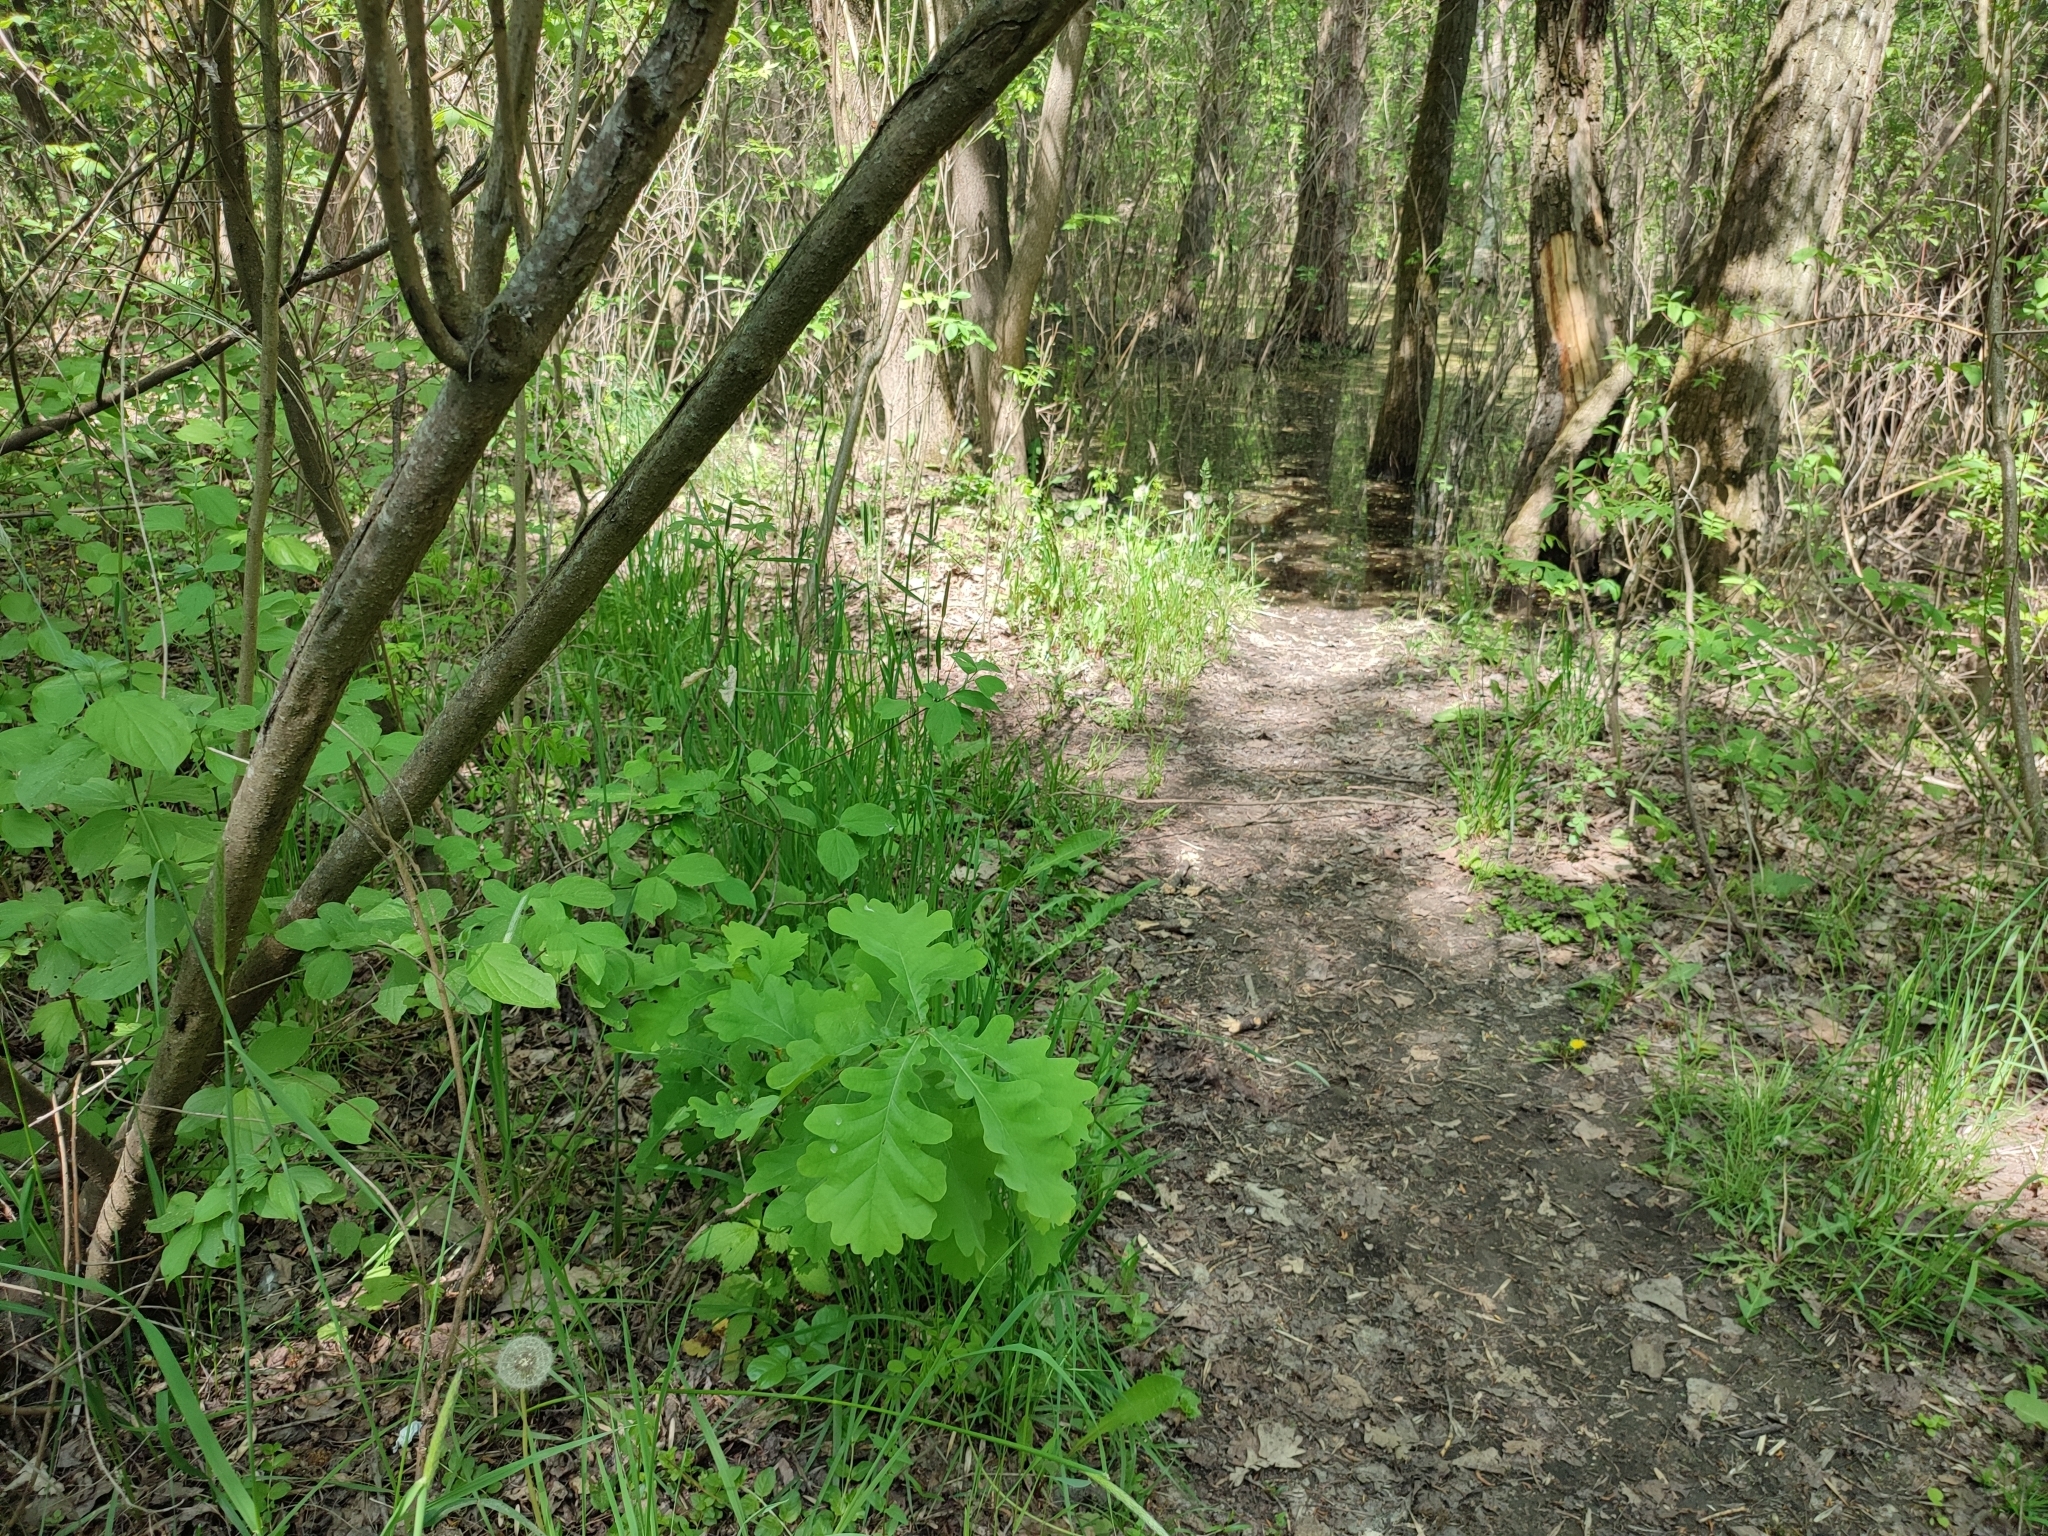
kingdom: Plantae
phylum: Tracheophyta
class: Magnoliopsida
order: Fagales
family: Fagaceae
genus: Quercus
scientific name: Quercus robur
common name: Pedunculate oak
